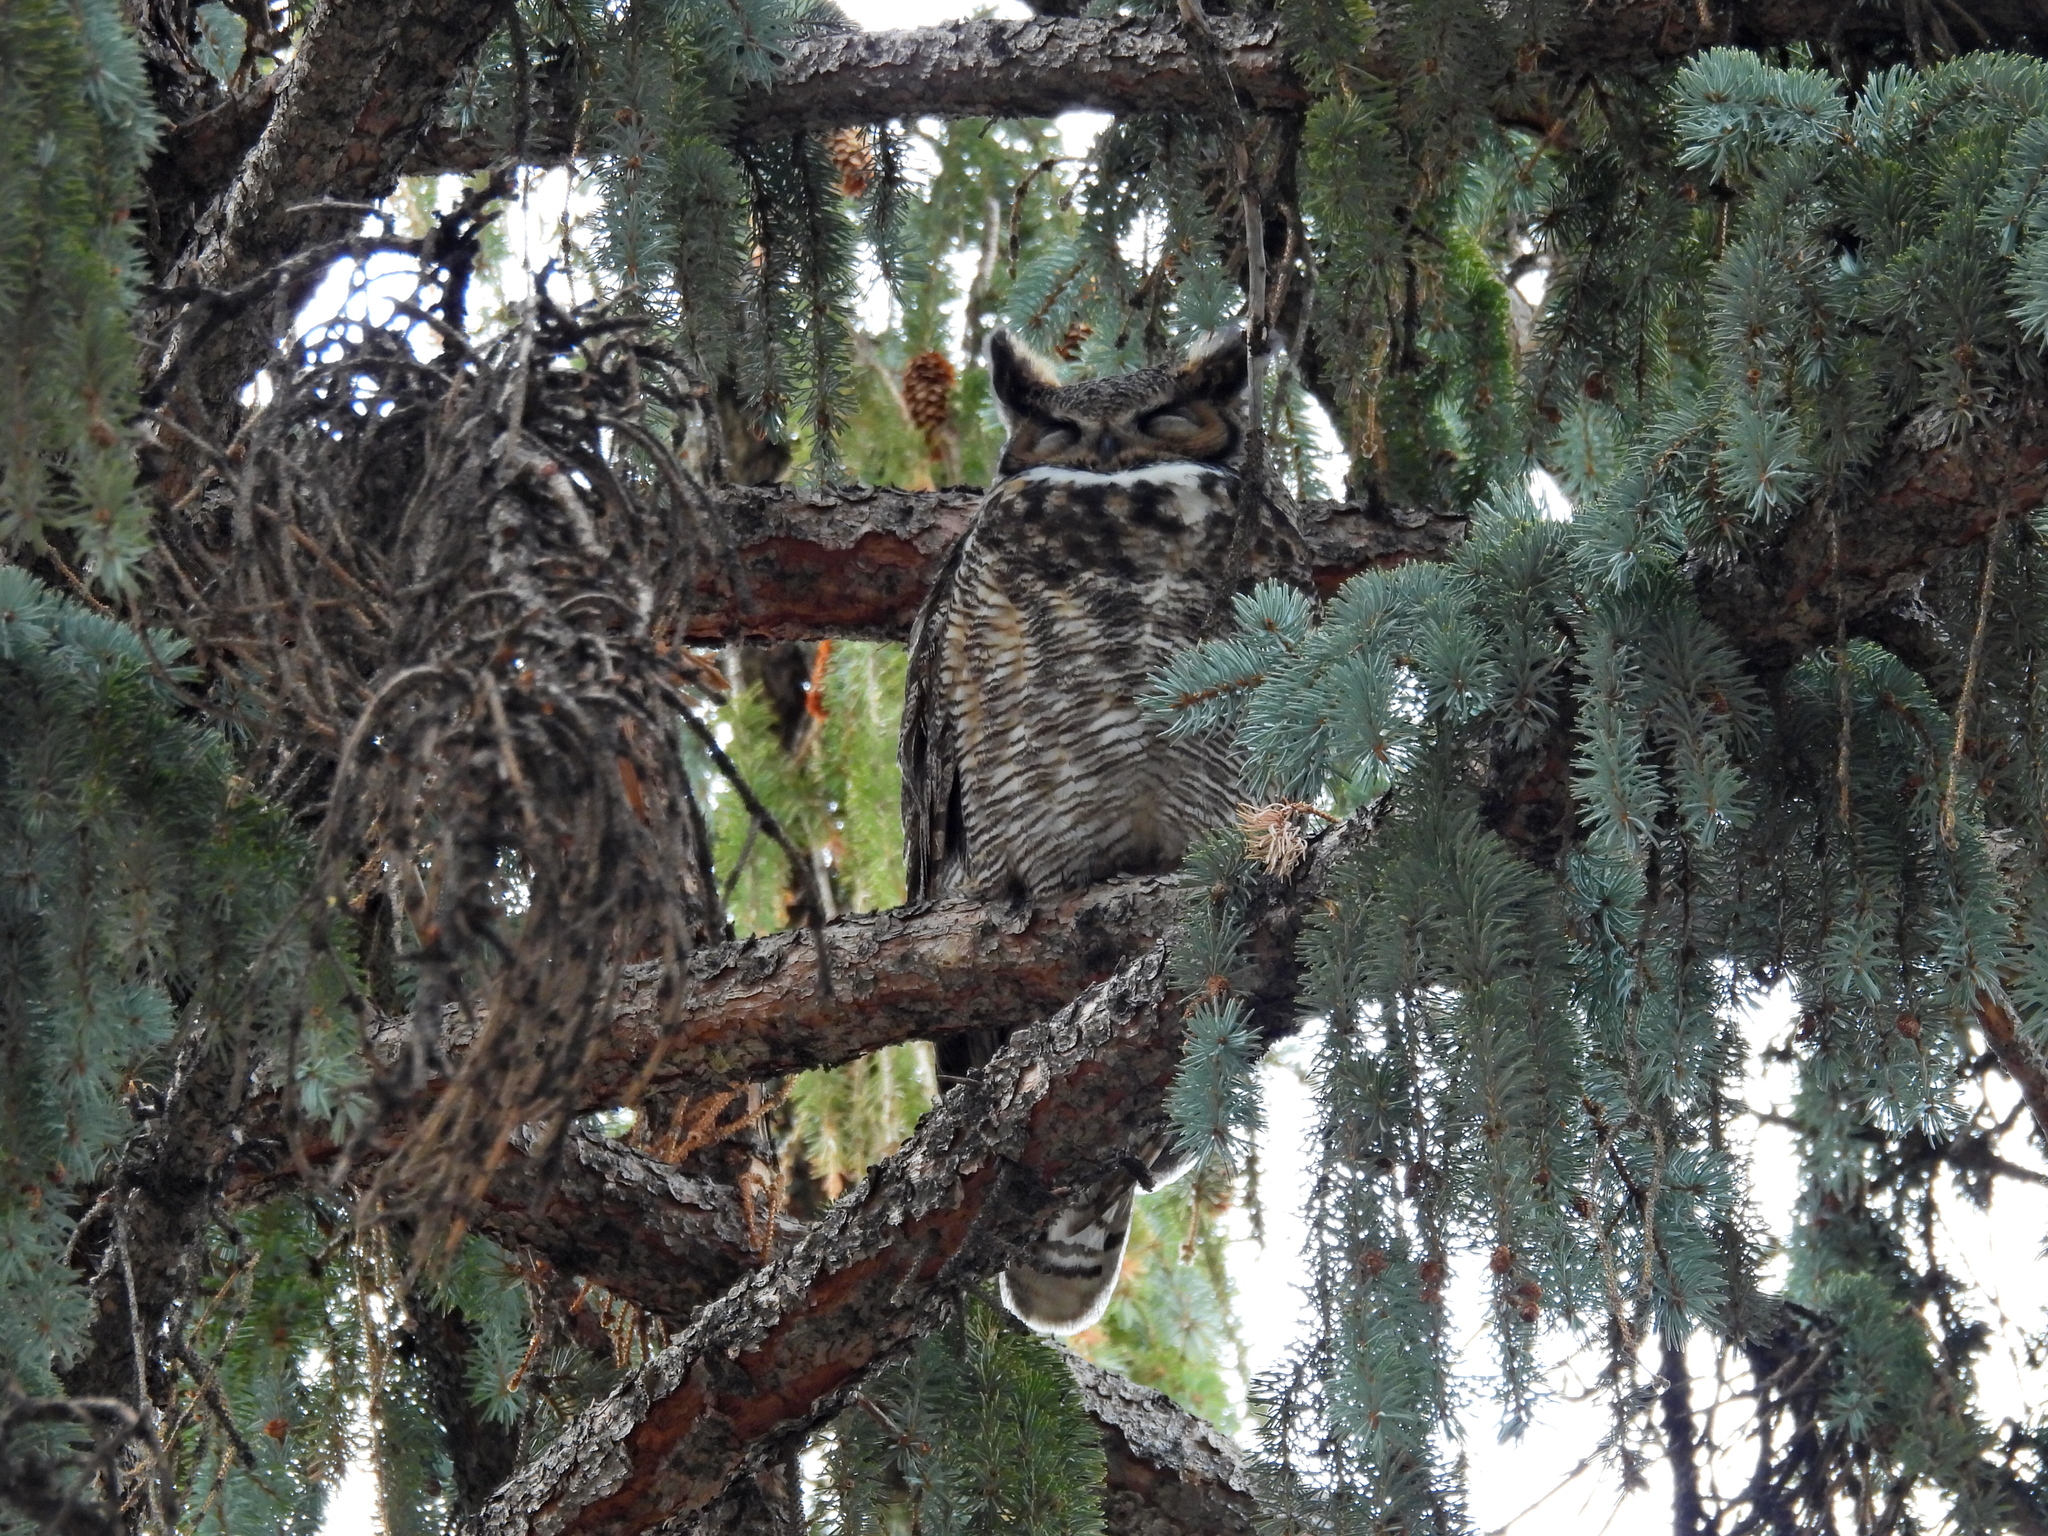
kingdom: Animalia
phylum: Chordata
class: Aves
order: Strigiformes
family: Strigidae
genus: Bubo
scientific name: Bubo virginianus
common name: Great horned owl
